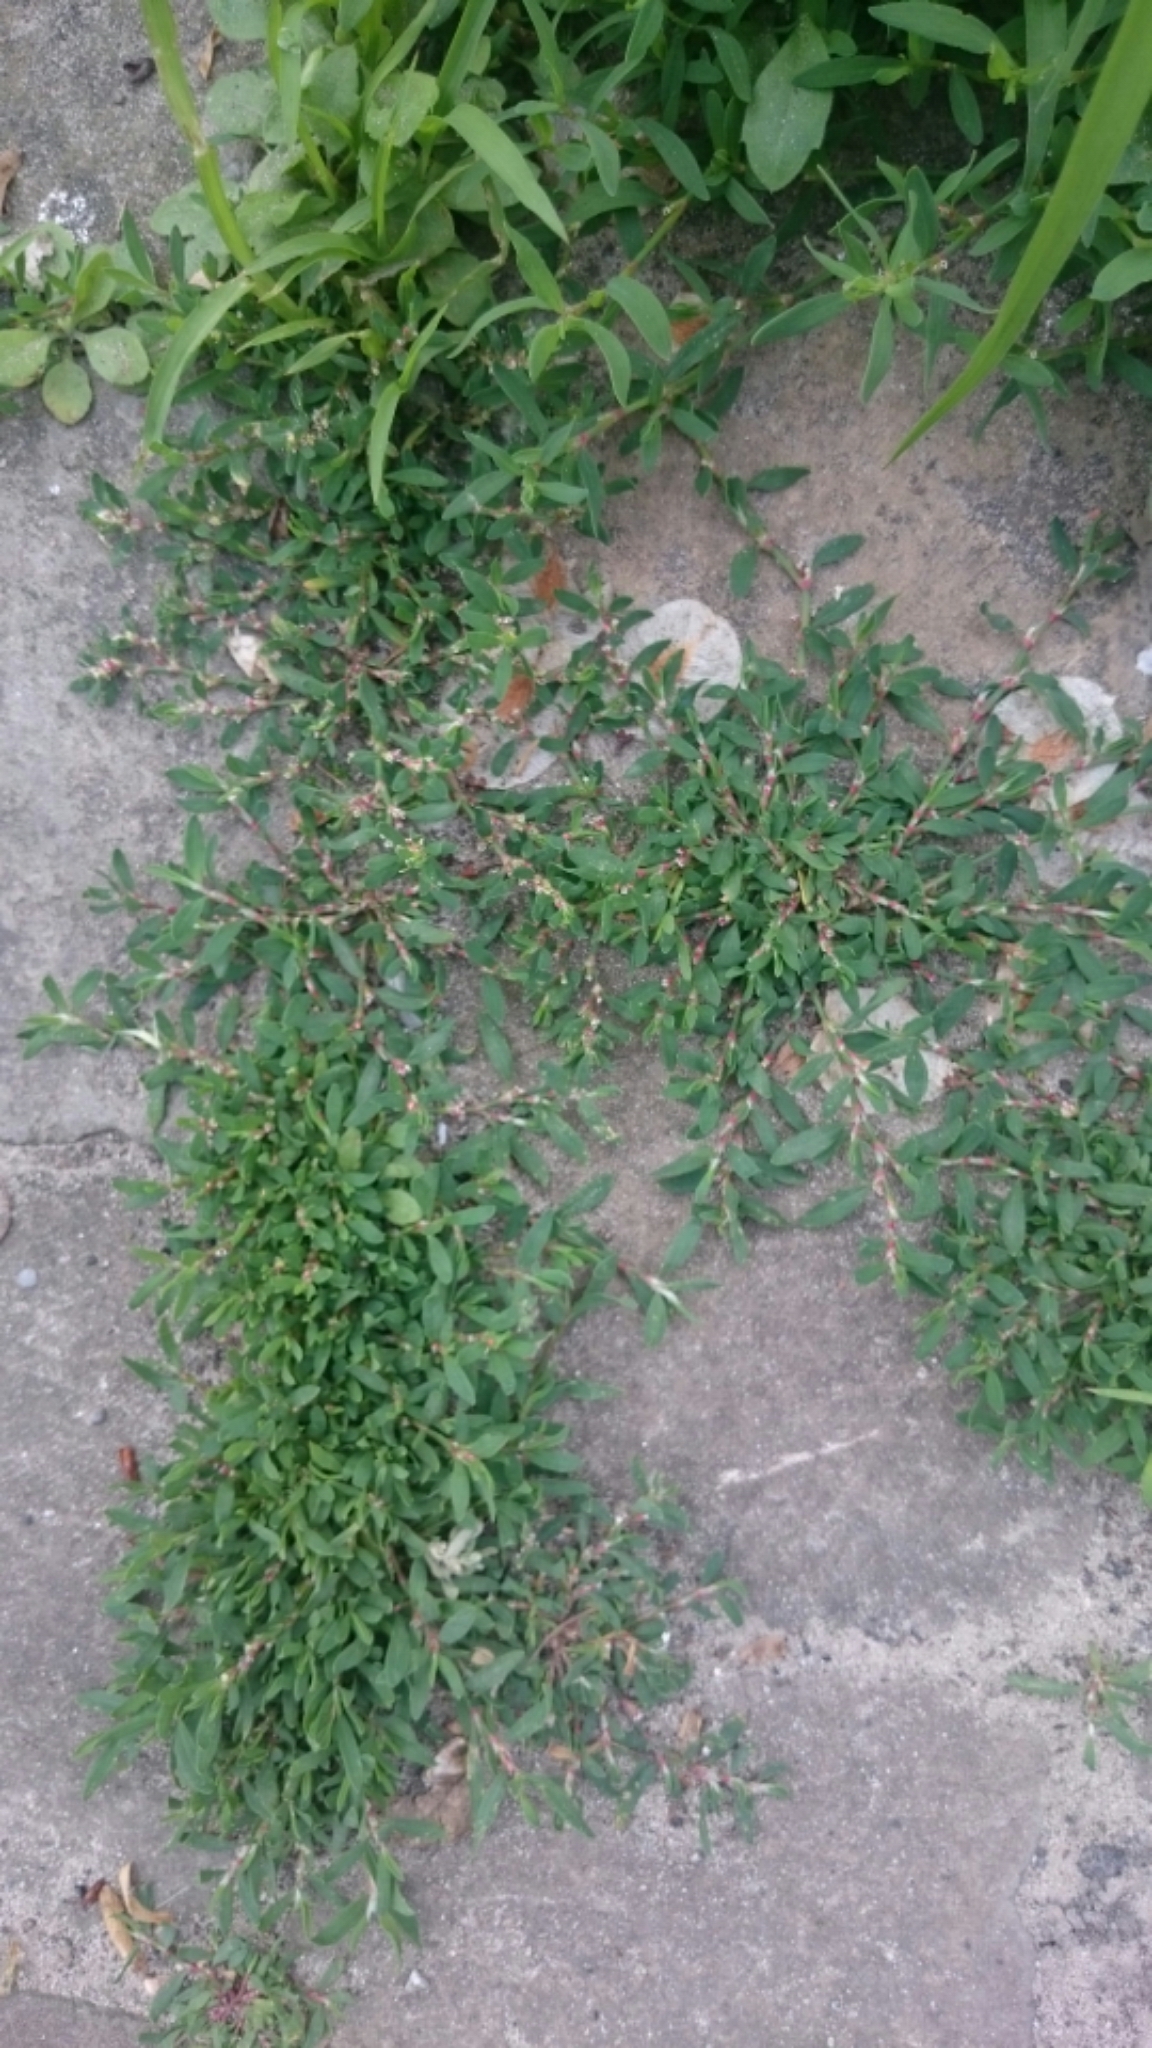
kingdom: Plantae
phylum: Tracheophyta
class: Magnoliopsida
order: Caryophyllales
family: Polygonaceae
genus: Polygonum
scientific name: Polygonum aviculare
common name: Prostrate knotweed
